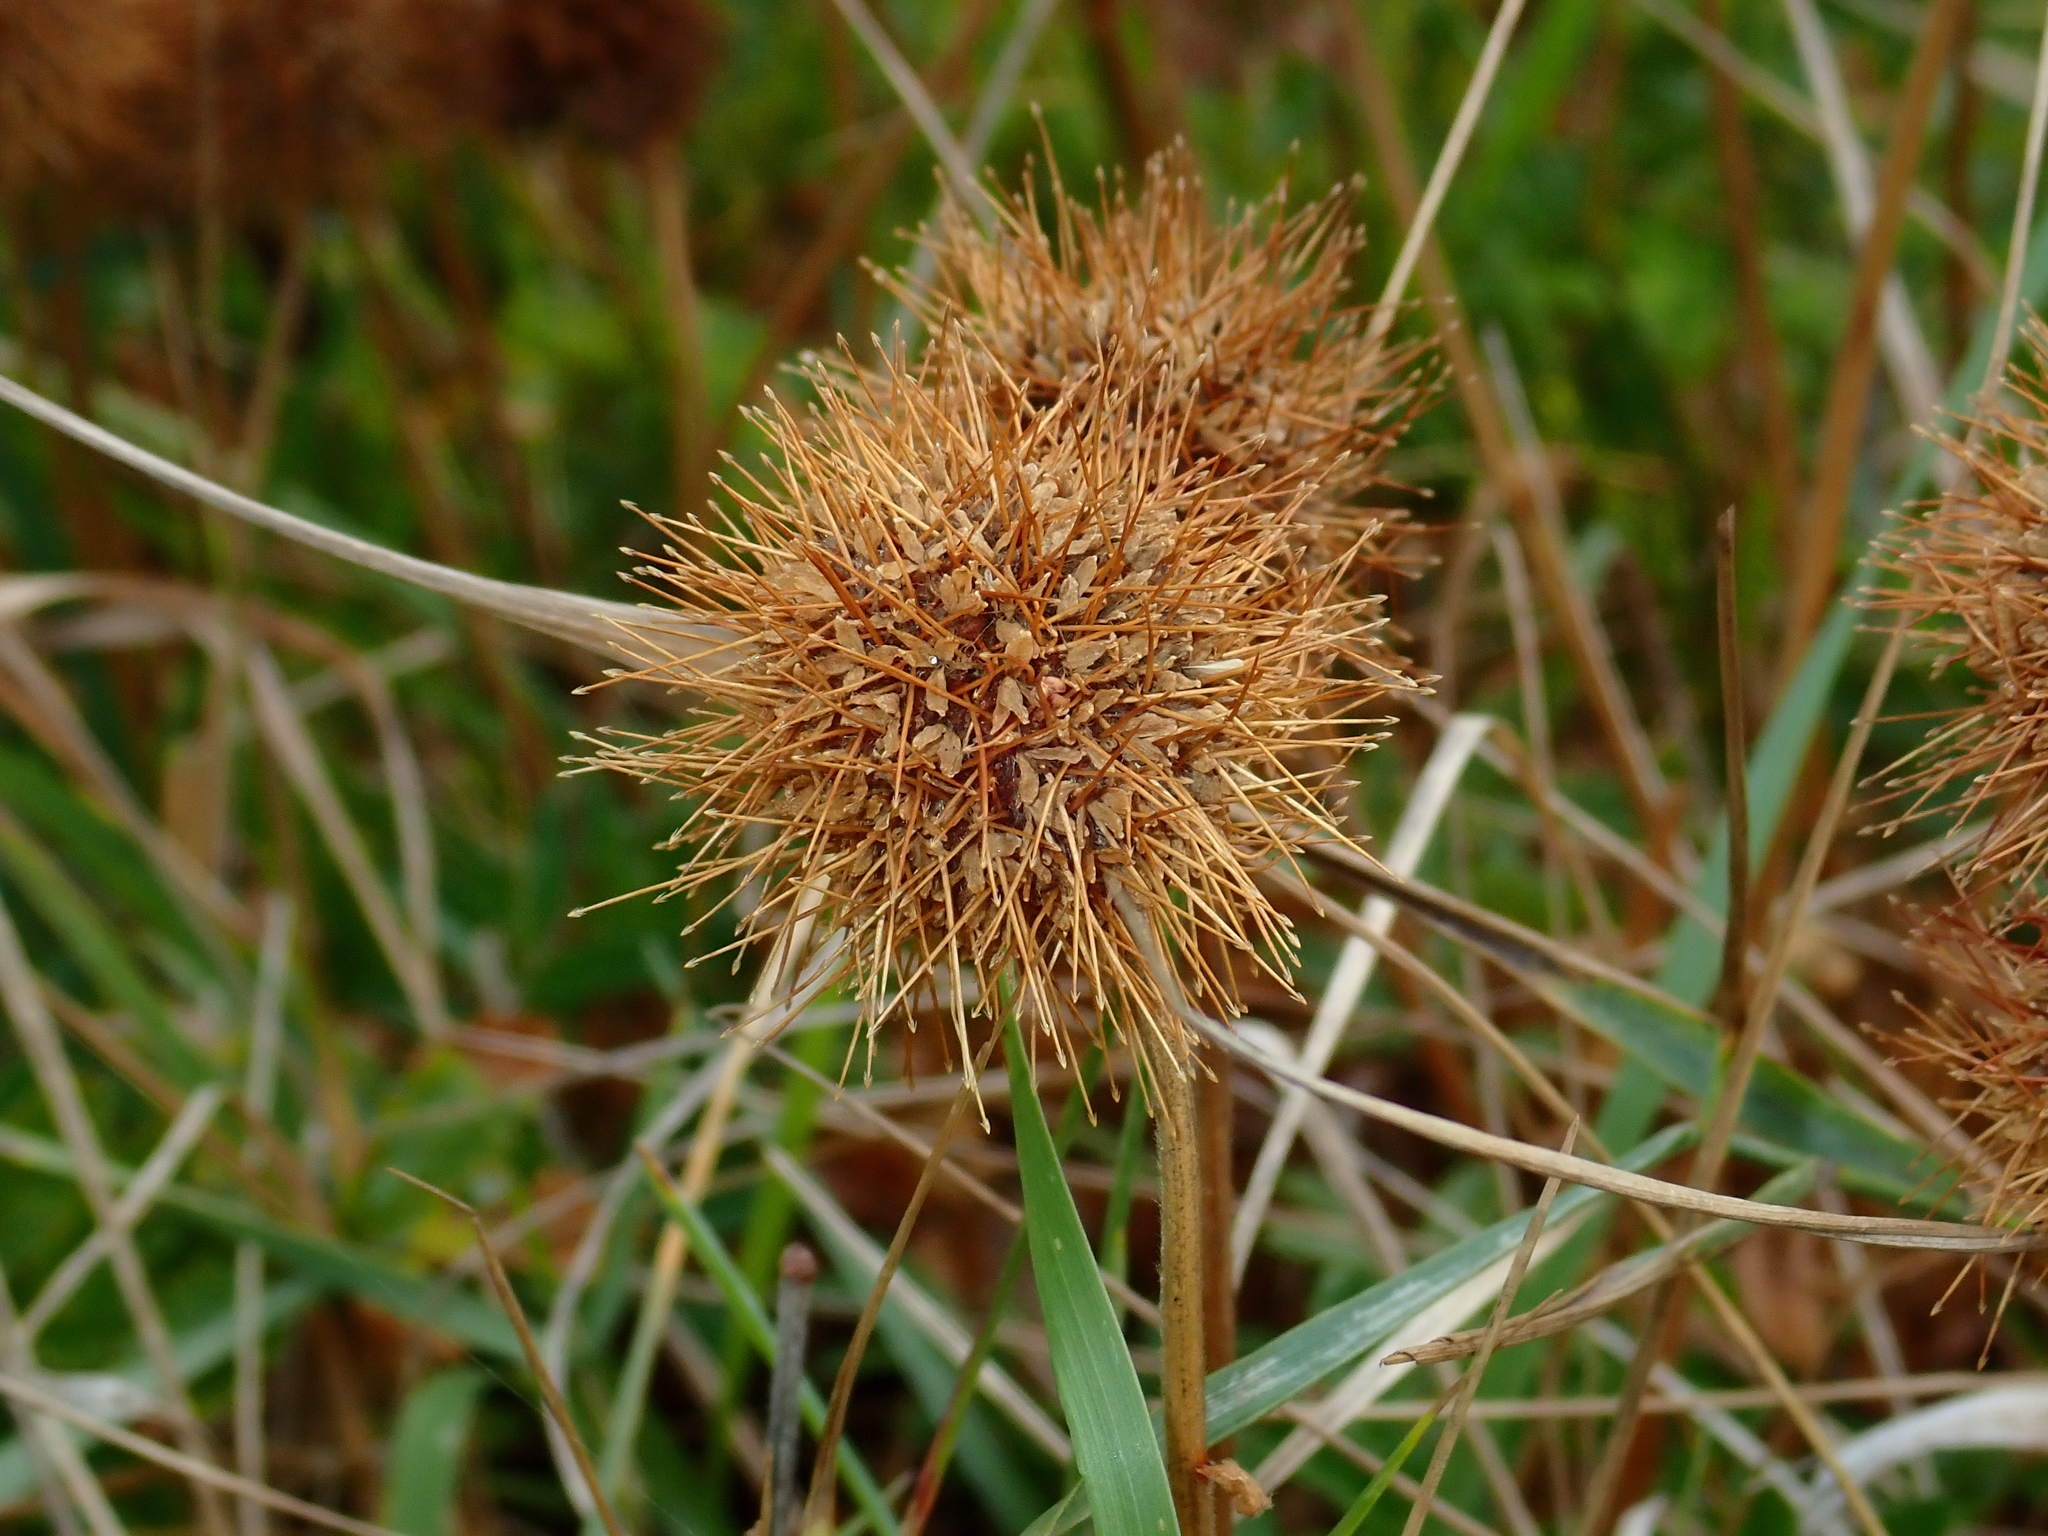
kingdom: Plantae
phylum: Tracheophyta
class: Magnoliopsida
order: Rosales
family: Rosaceae
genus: Acaena
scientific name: Acaena pallida
